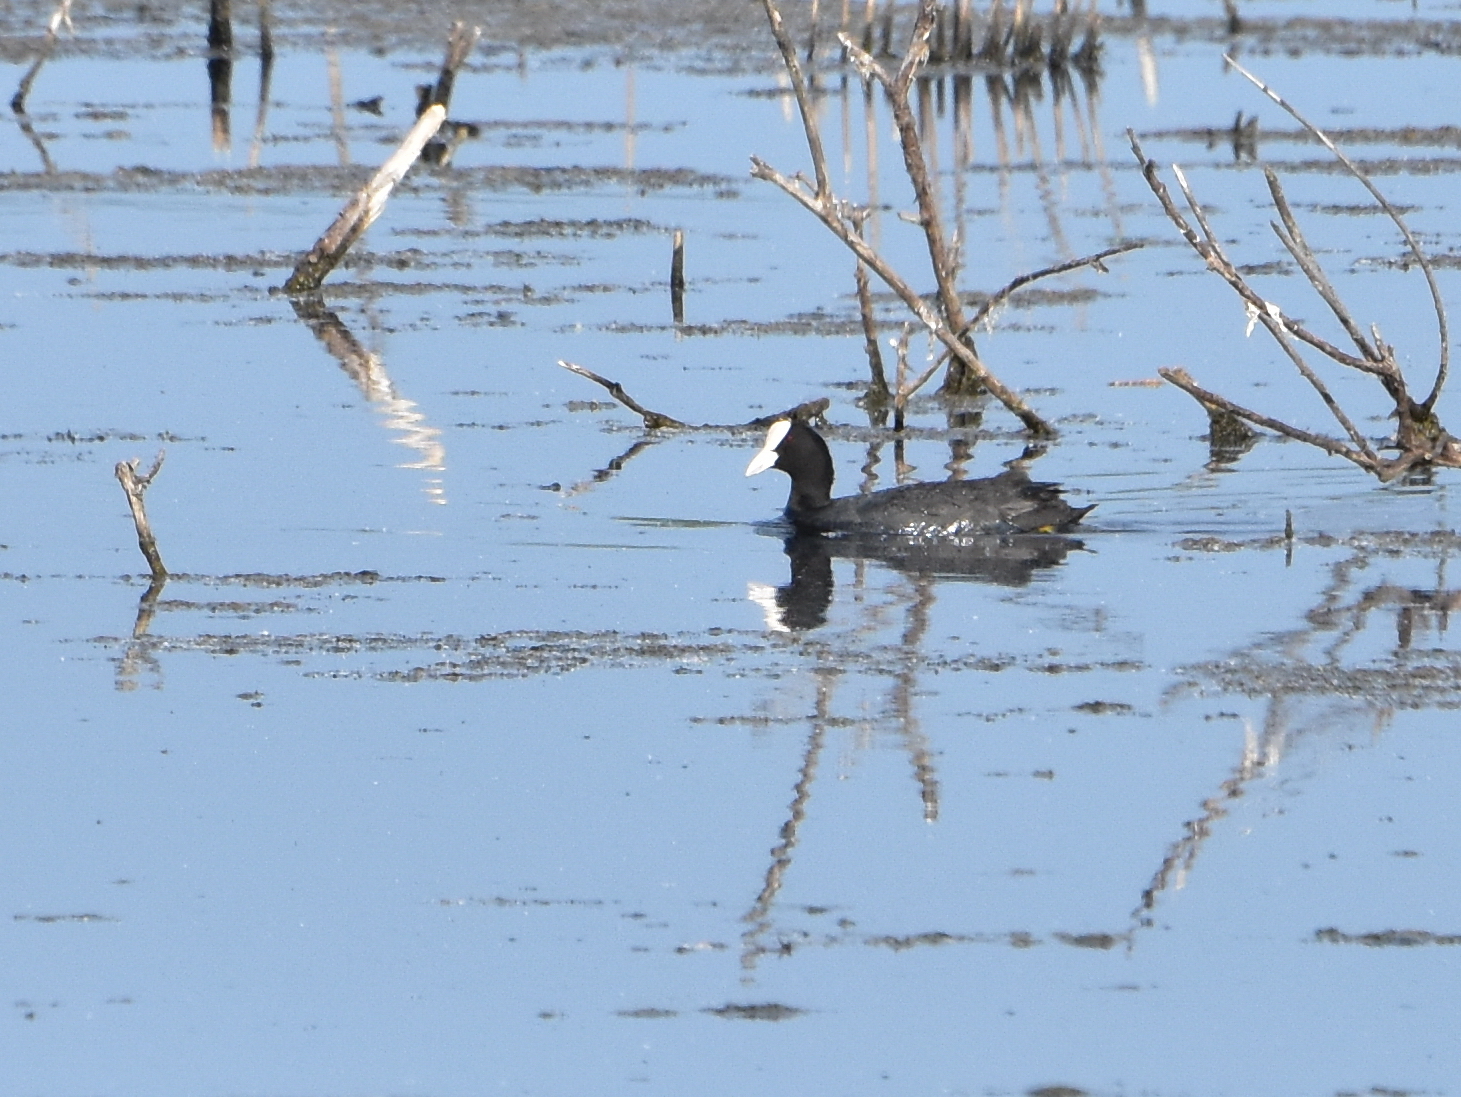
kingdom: Animalia
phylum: Chordata
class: Aves
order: Gruiformes
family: Rallidae
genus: Fulica
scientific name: Fulica atra
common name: Eurasian coot
